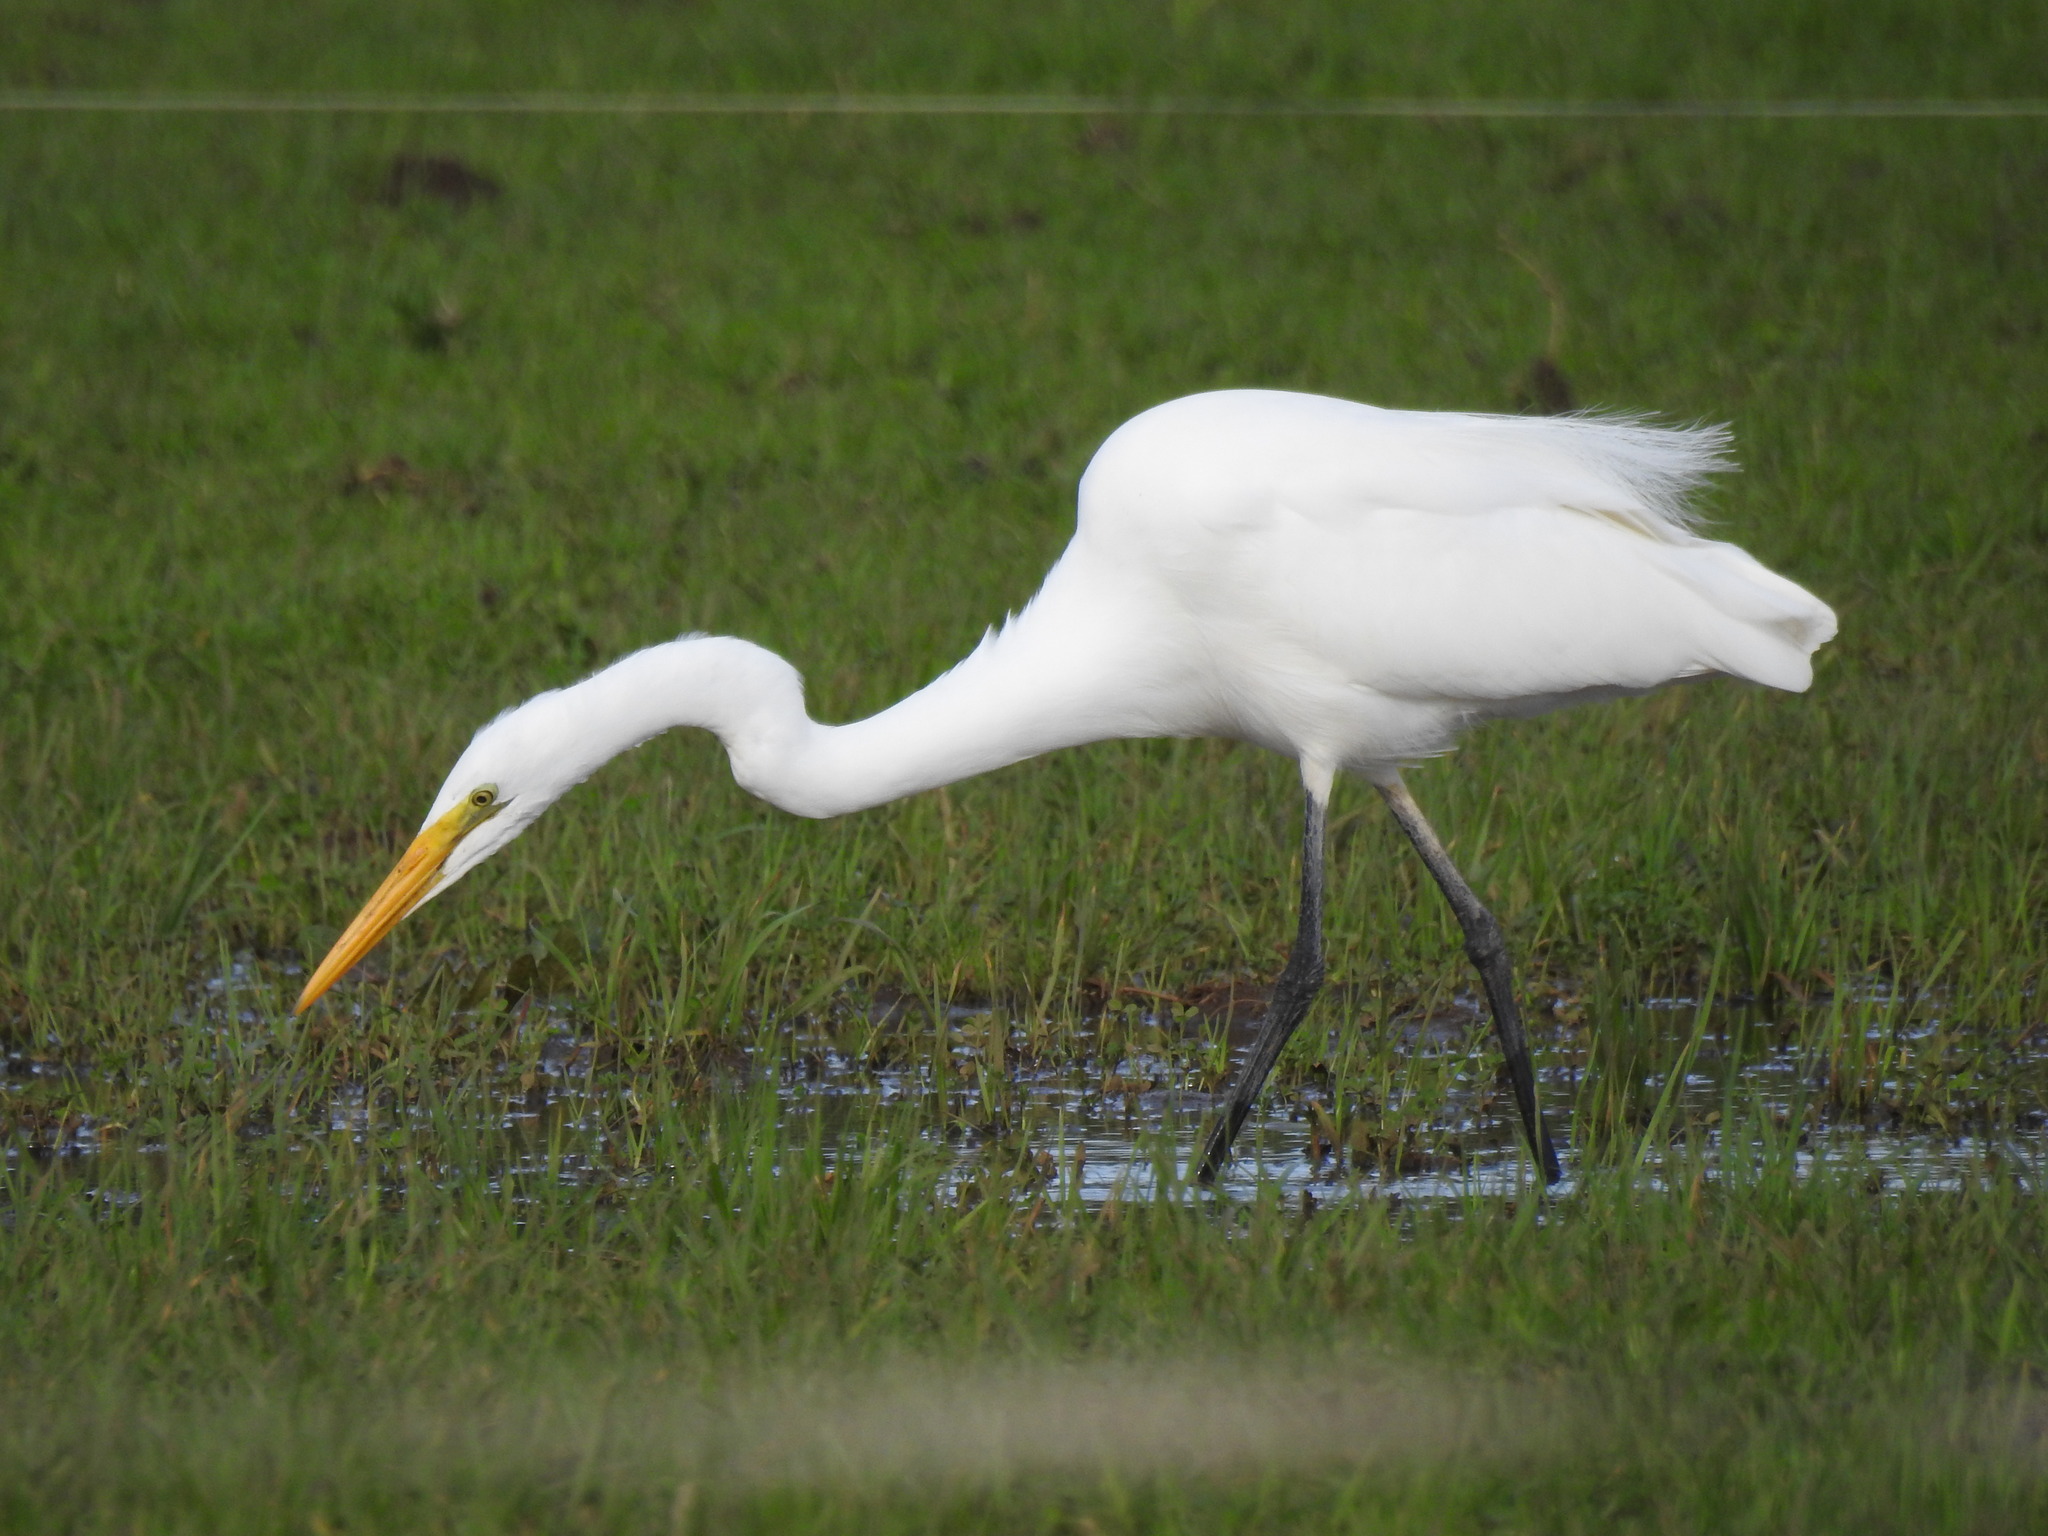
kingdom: Animalia
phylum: Chordata
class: Aves
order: Pelecaniformes
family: Ardeidae
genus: Ardea
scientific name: Ardea modesta
